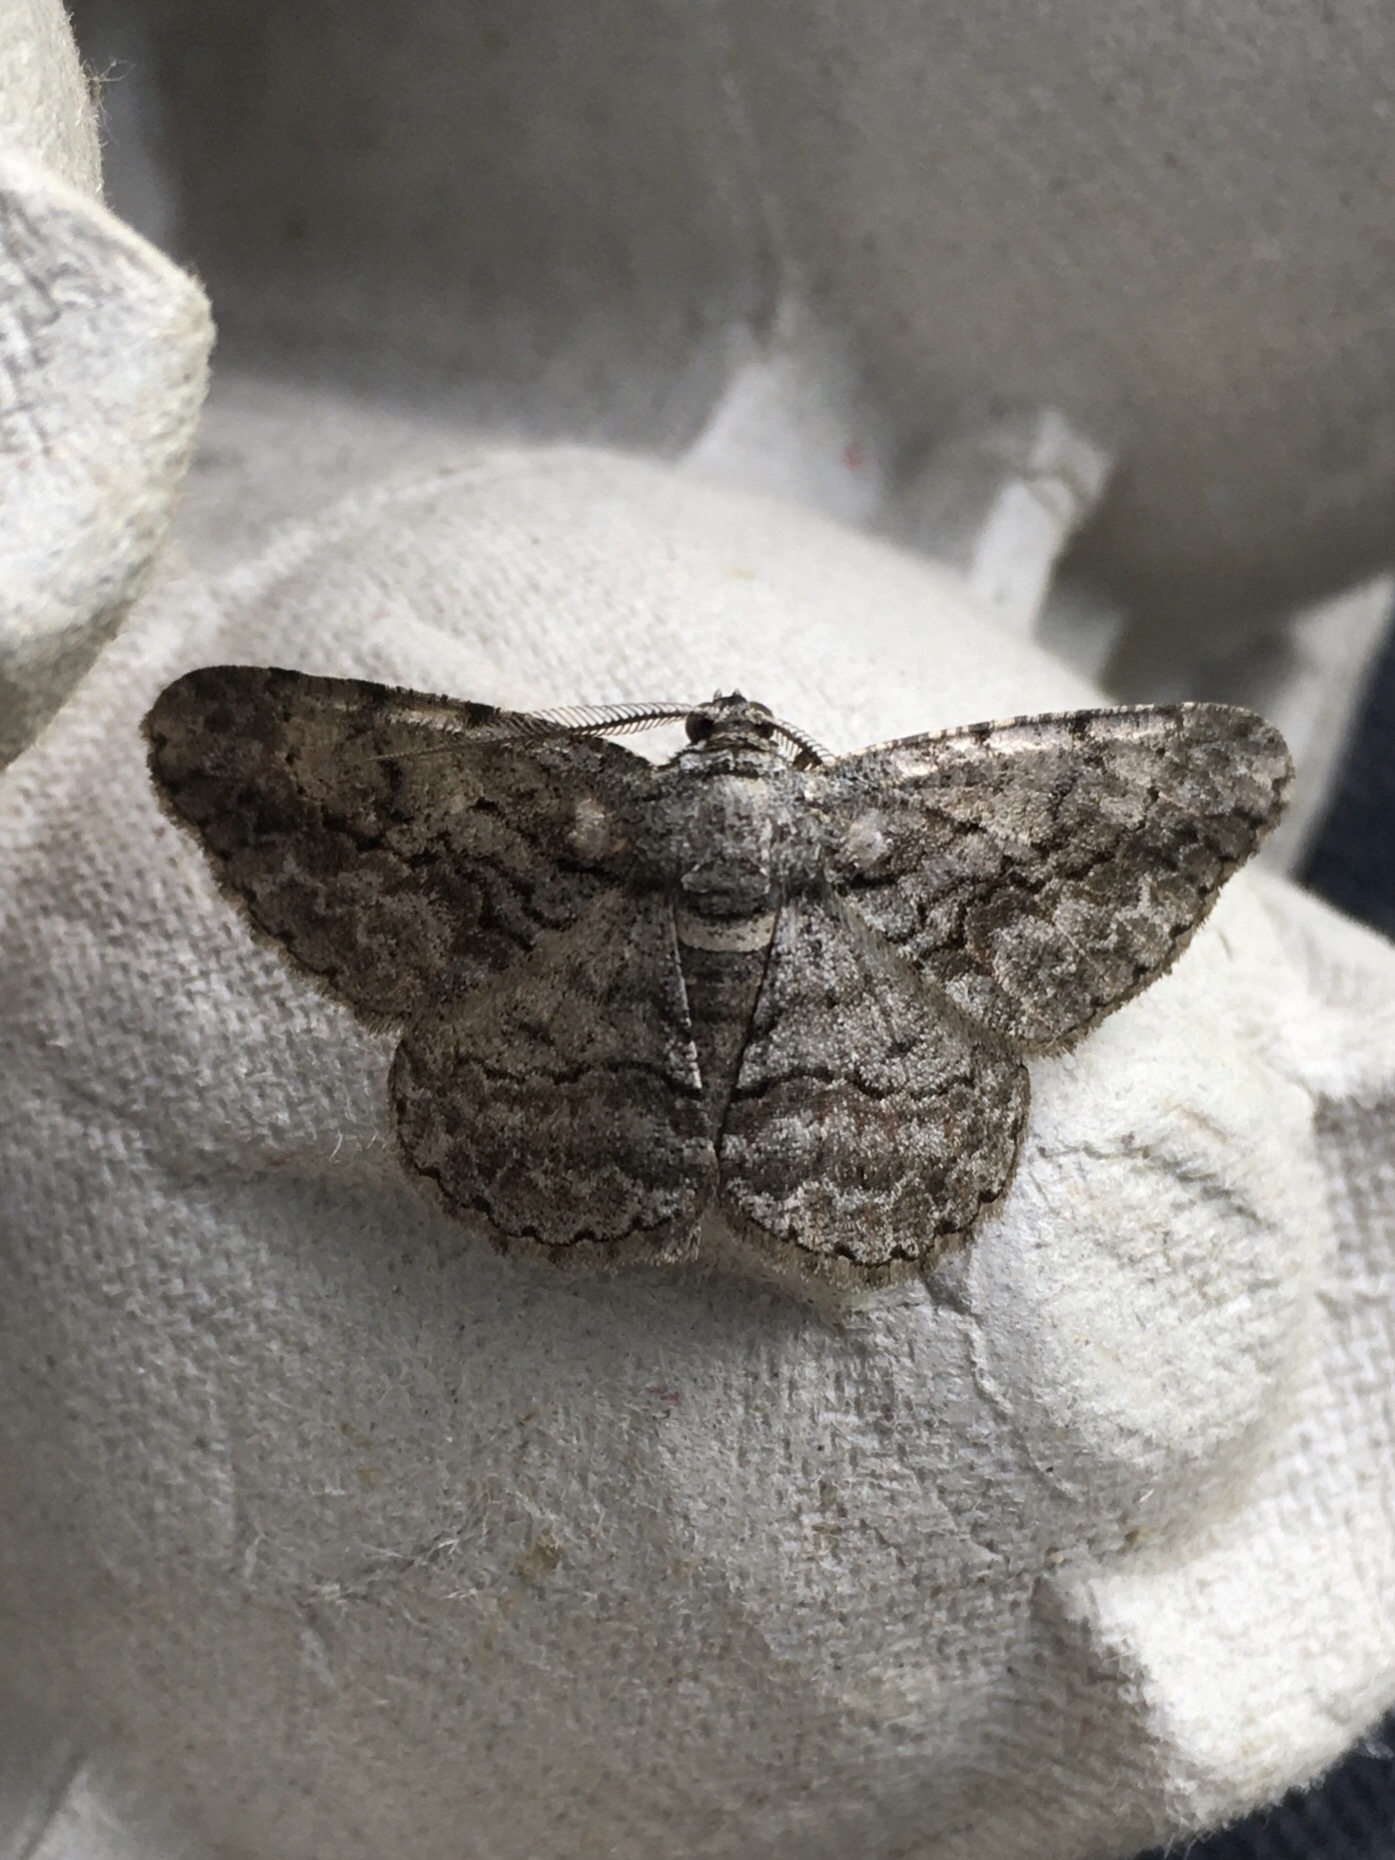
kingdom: Animalia
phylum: Arthropoda
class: Insecta
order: Lepidoptera
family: Geometridae
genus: Anavitrinella
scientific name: Anavitrinella pampinaria
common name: Common gray
